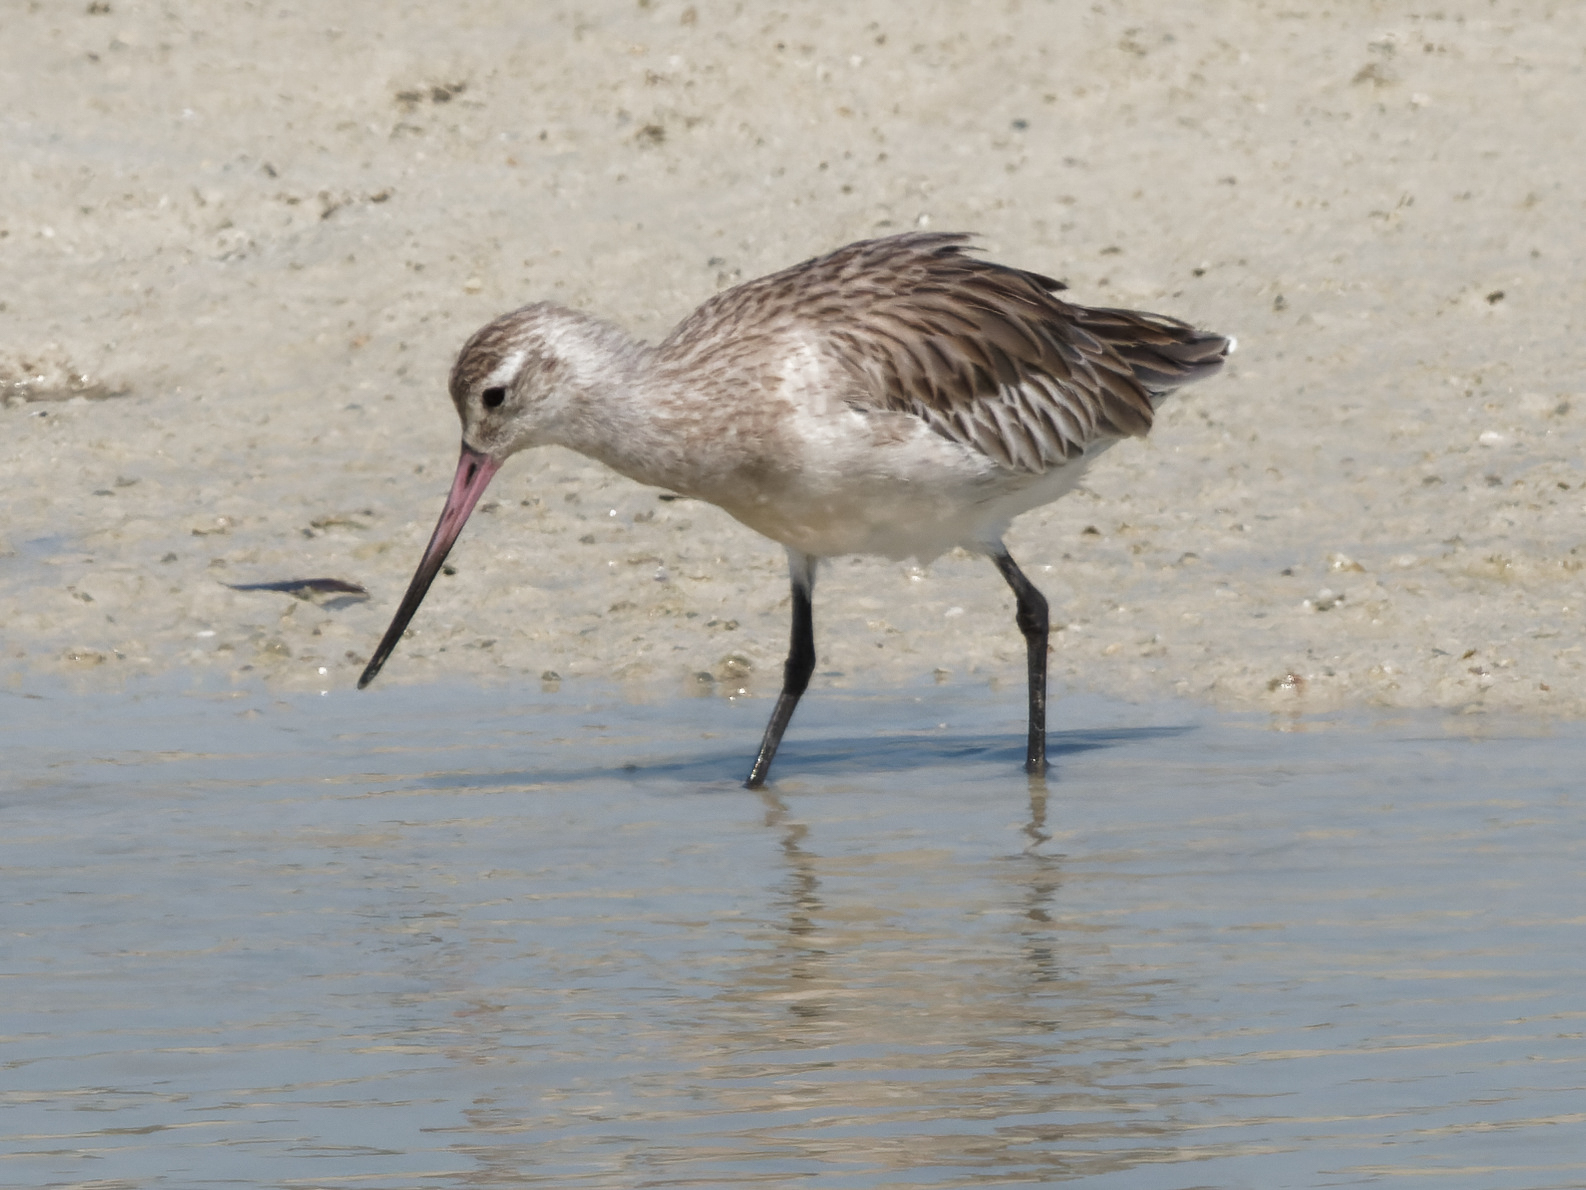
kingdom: Animalia
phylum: Chordata
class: Aves
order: Charadriiformes
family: Scolopacidae
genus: Limosa
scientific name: Limosa lapponica
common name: Bar-tailed godwit
